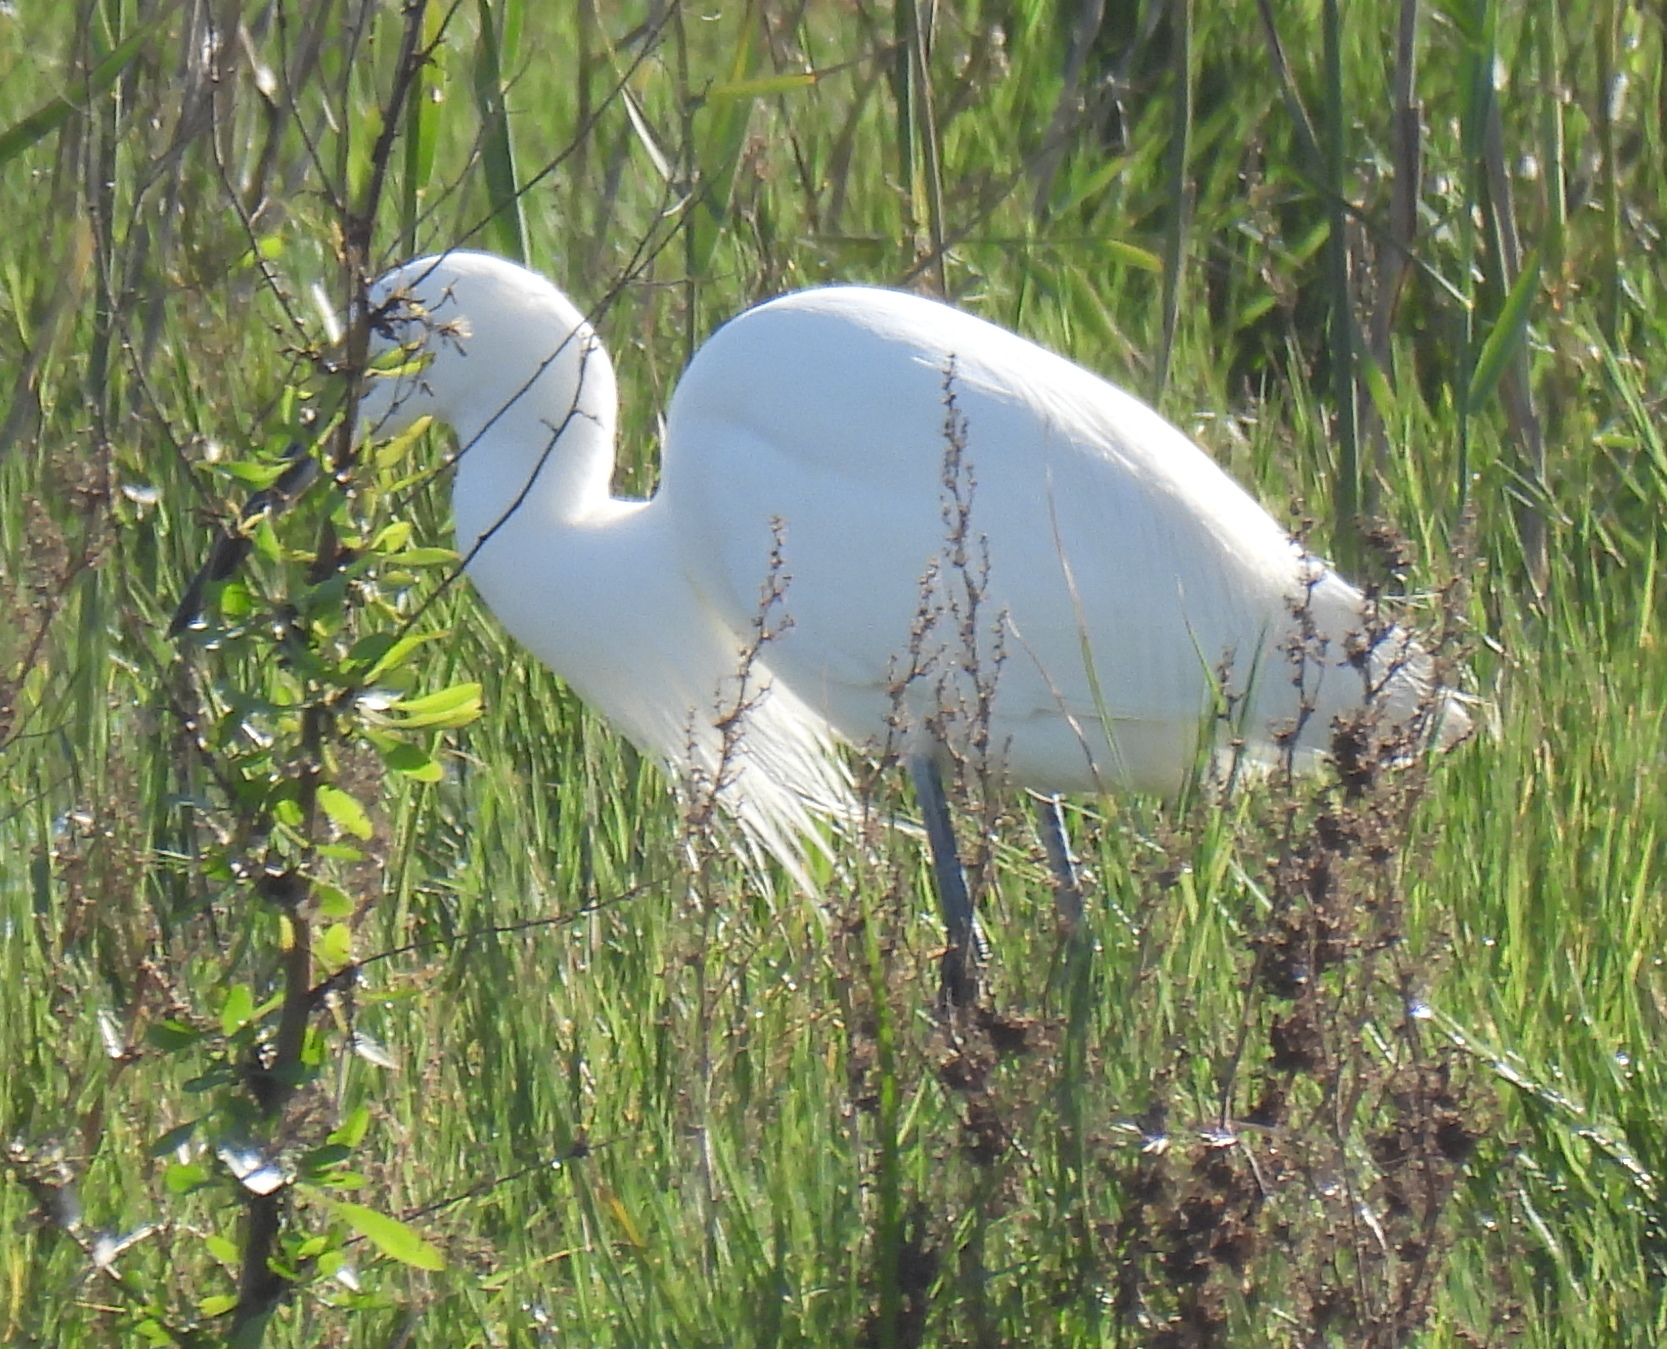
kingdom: Animalia
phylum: Chordata
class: Aves
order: Pelecaniformes
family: Ardeidae
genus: Egretta
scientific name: Egretta garzetta
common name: Little egret
